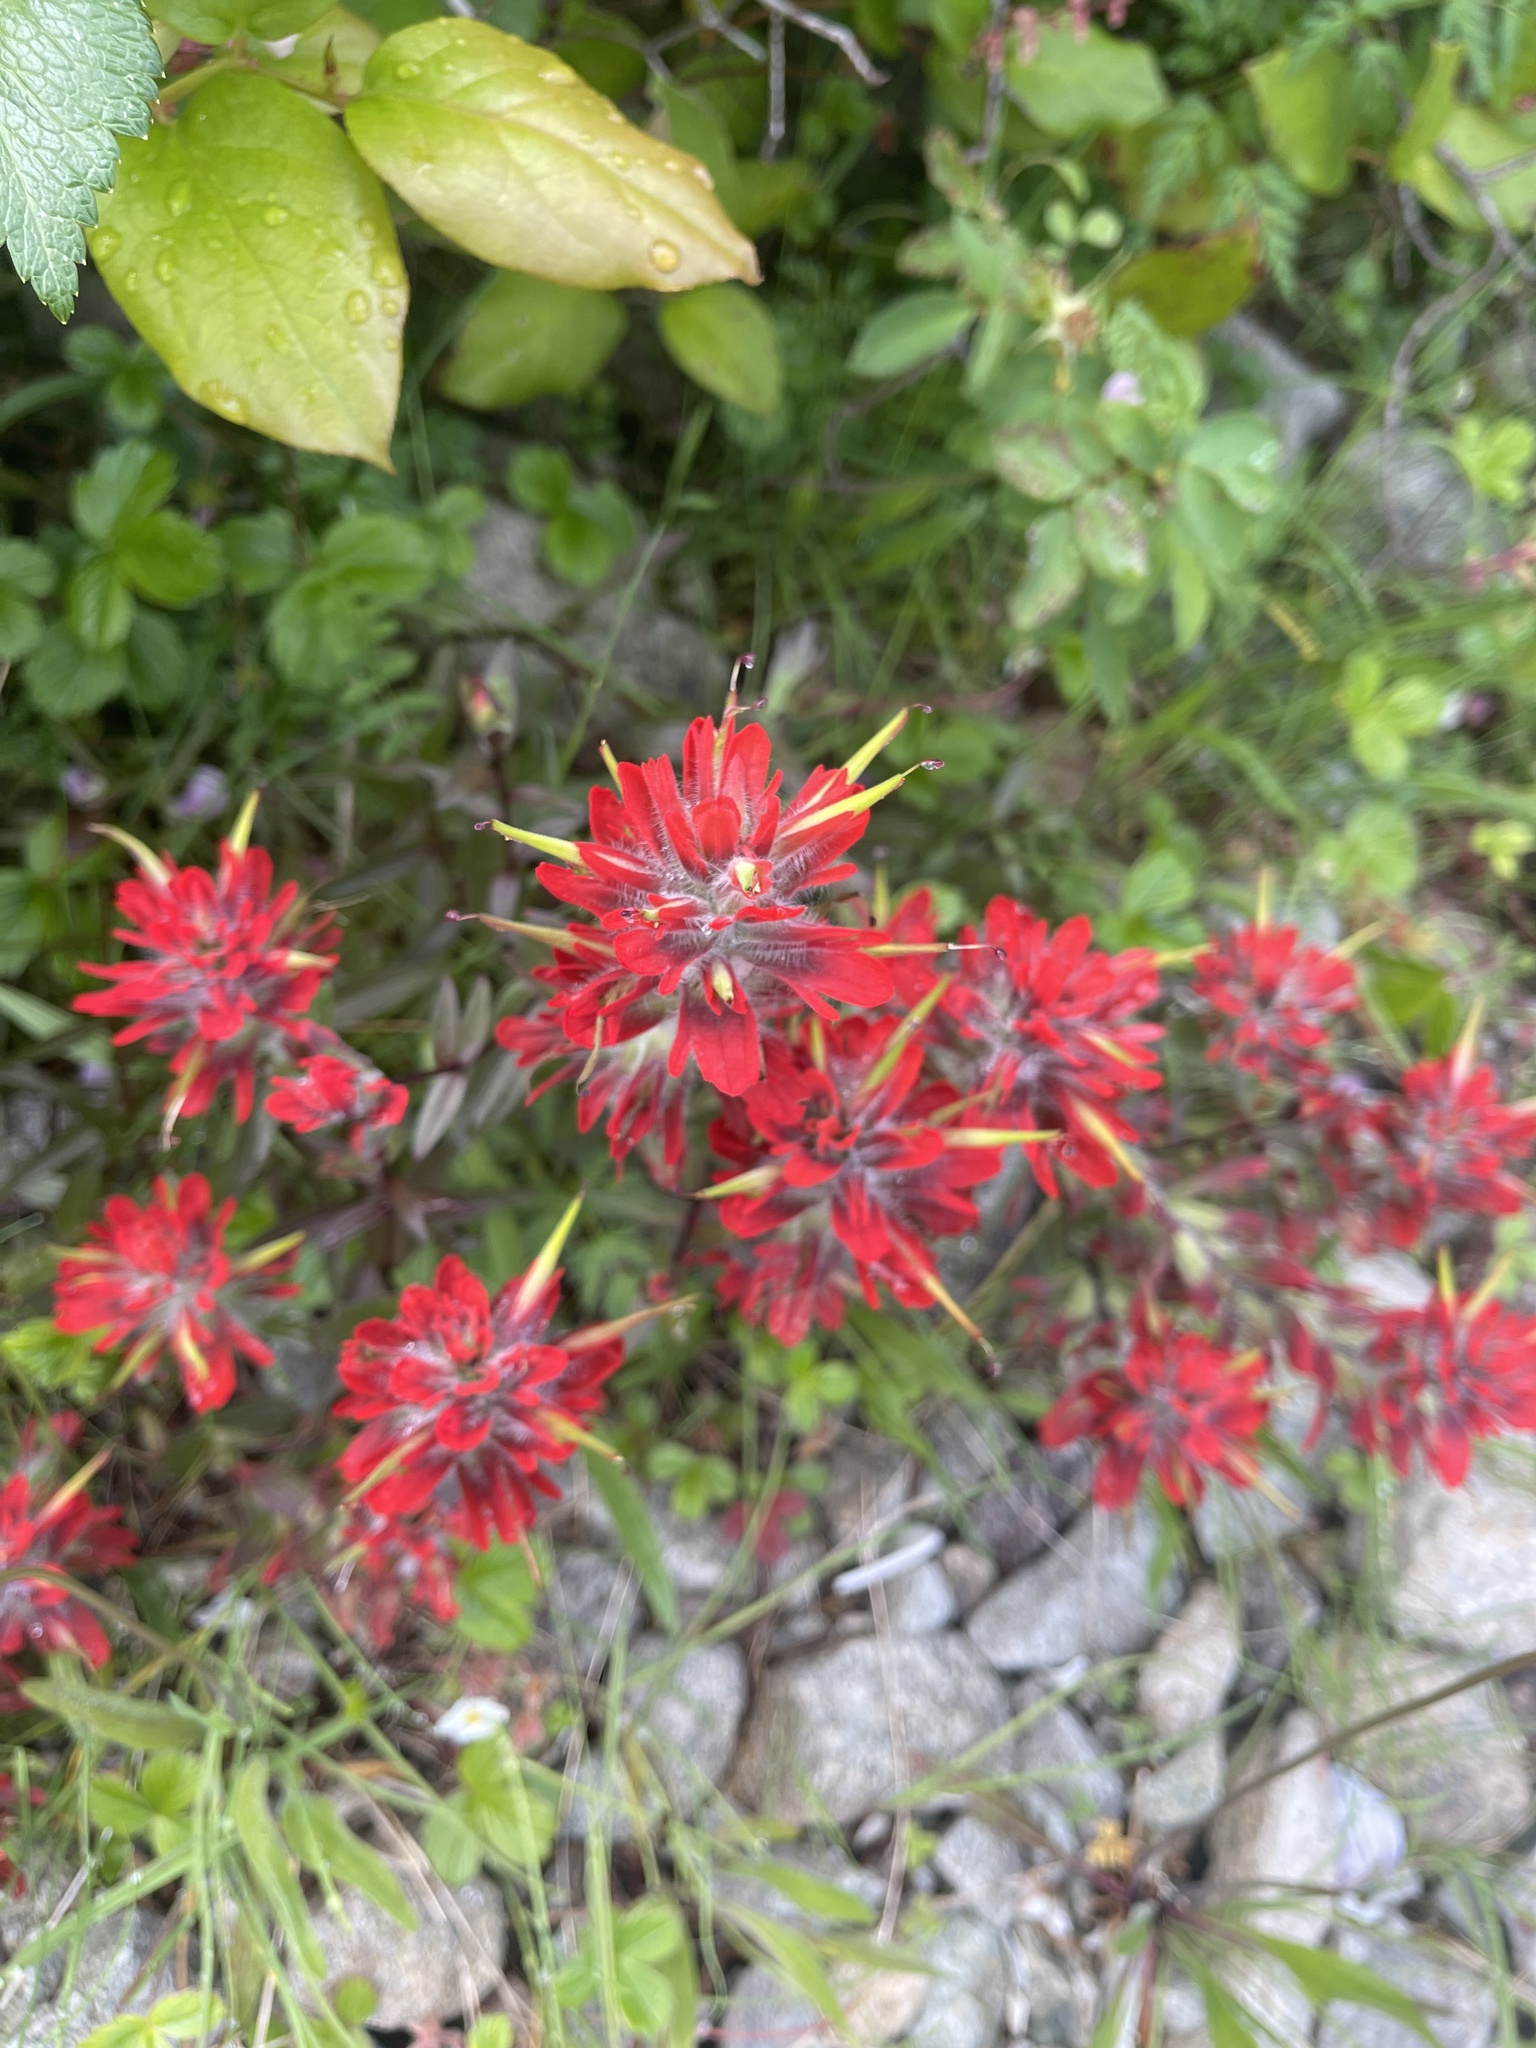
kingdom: Plantae
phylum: Tracheophyta
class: Magnoliopsida
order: Lamiales
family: Orobanchaceae
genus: Castilleja
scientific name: Castilleja miniata
